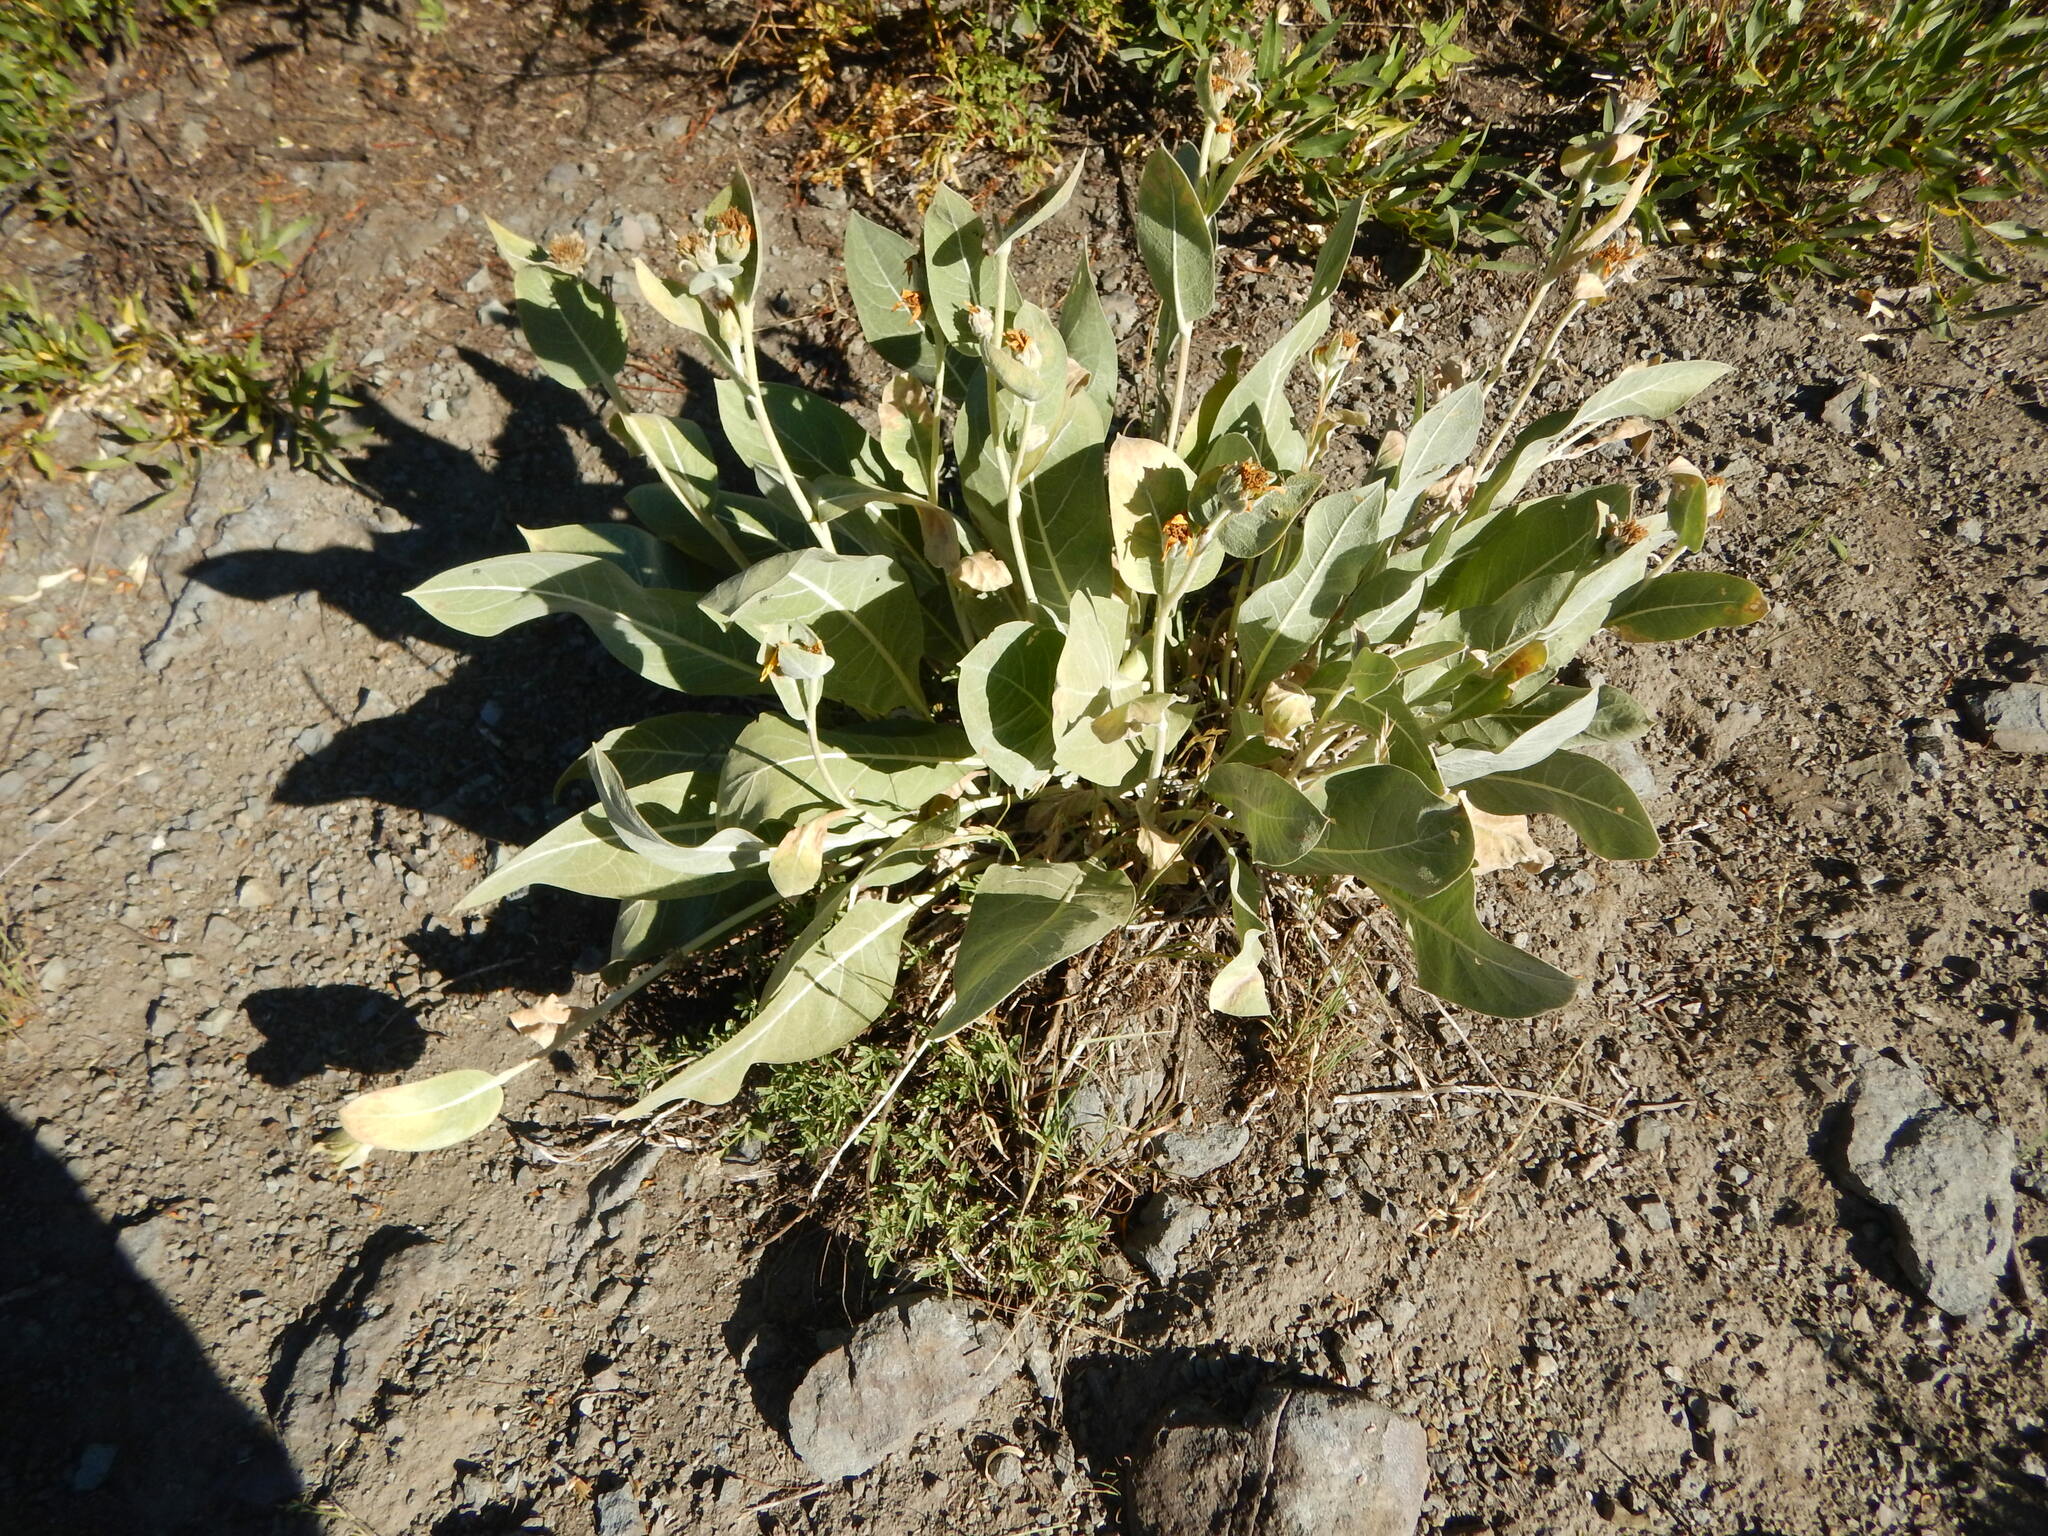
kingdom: Plantae
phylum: Tracheophyta
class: Magnoliopsida
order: Asterales
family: Asteraceae
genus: Wyethia
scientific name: Wyethia mollis
